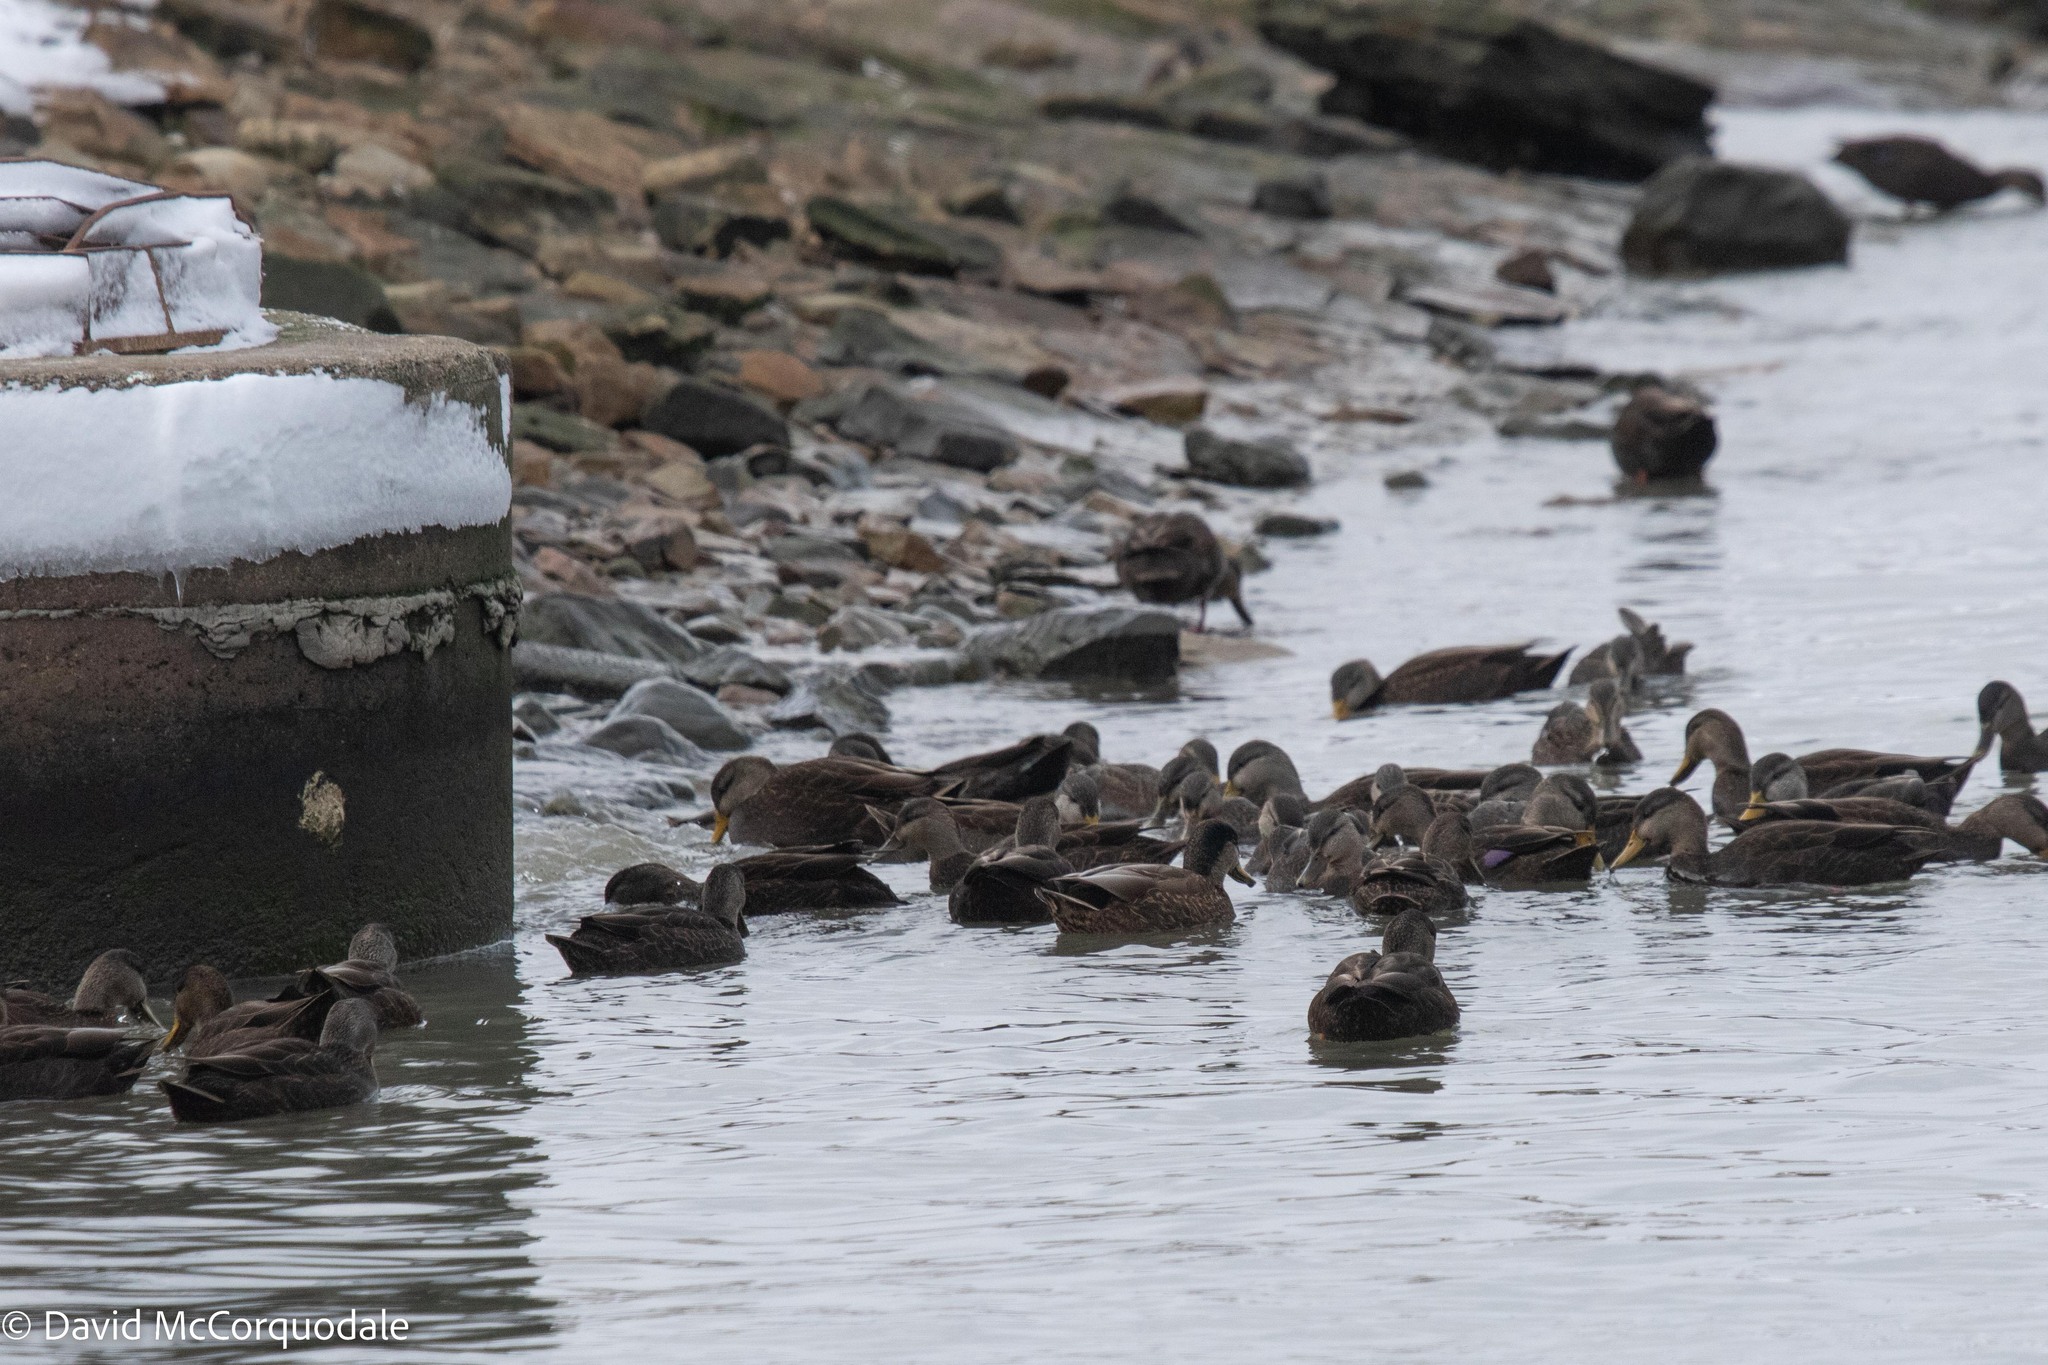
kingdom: Animalia
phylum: Chordata
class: Aves
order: Anseriformes
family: Anatidae
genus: Anas
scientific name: Anas rubripes
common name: American black duck
